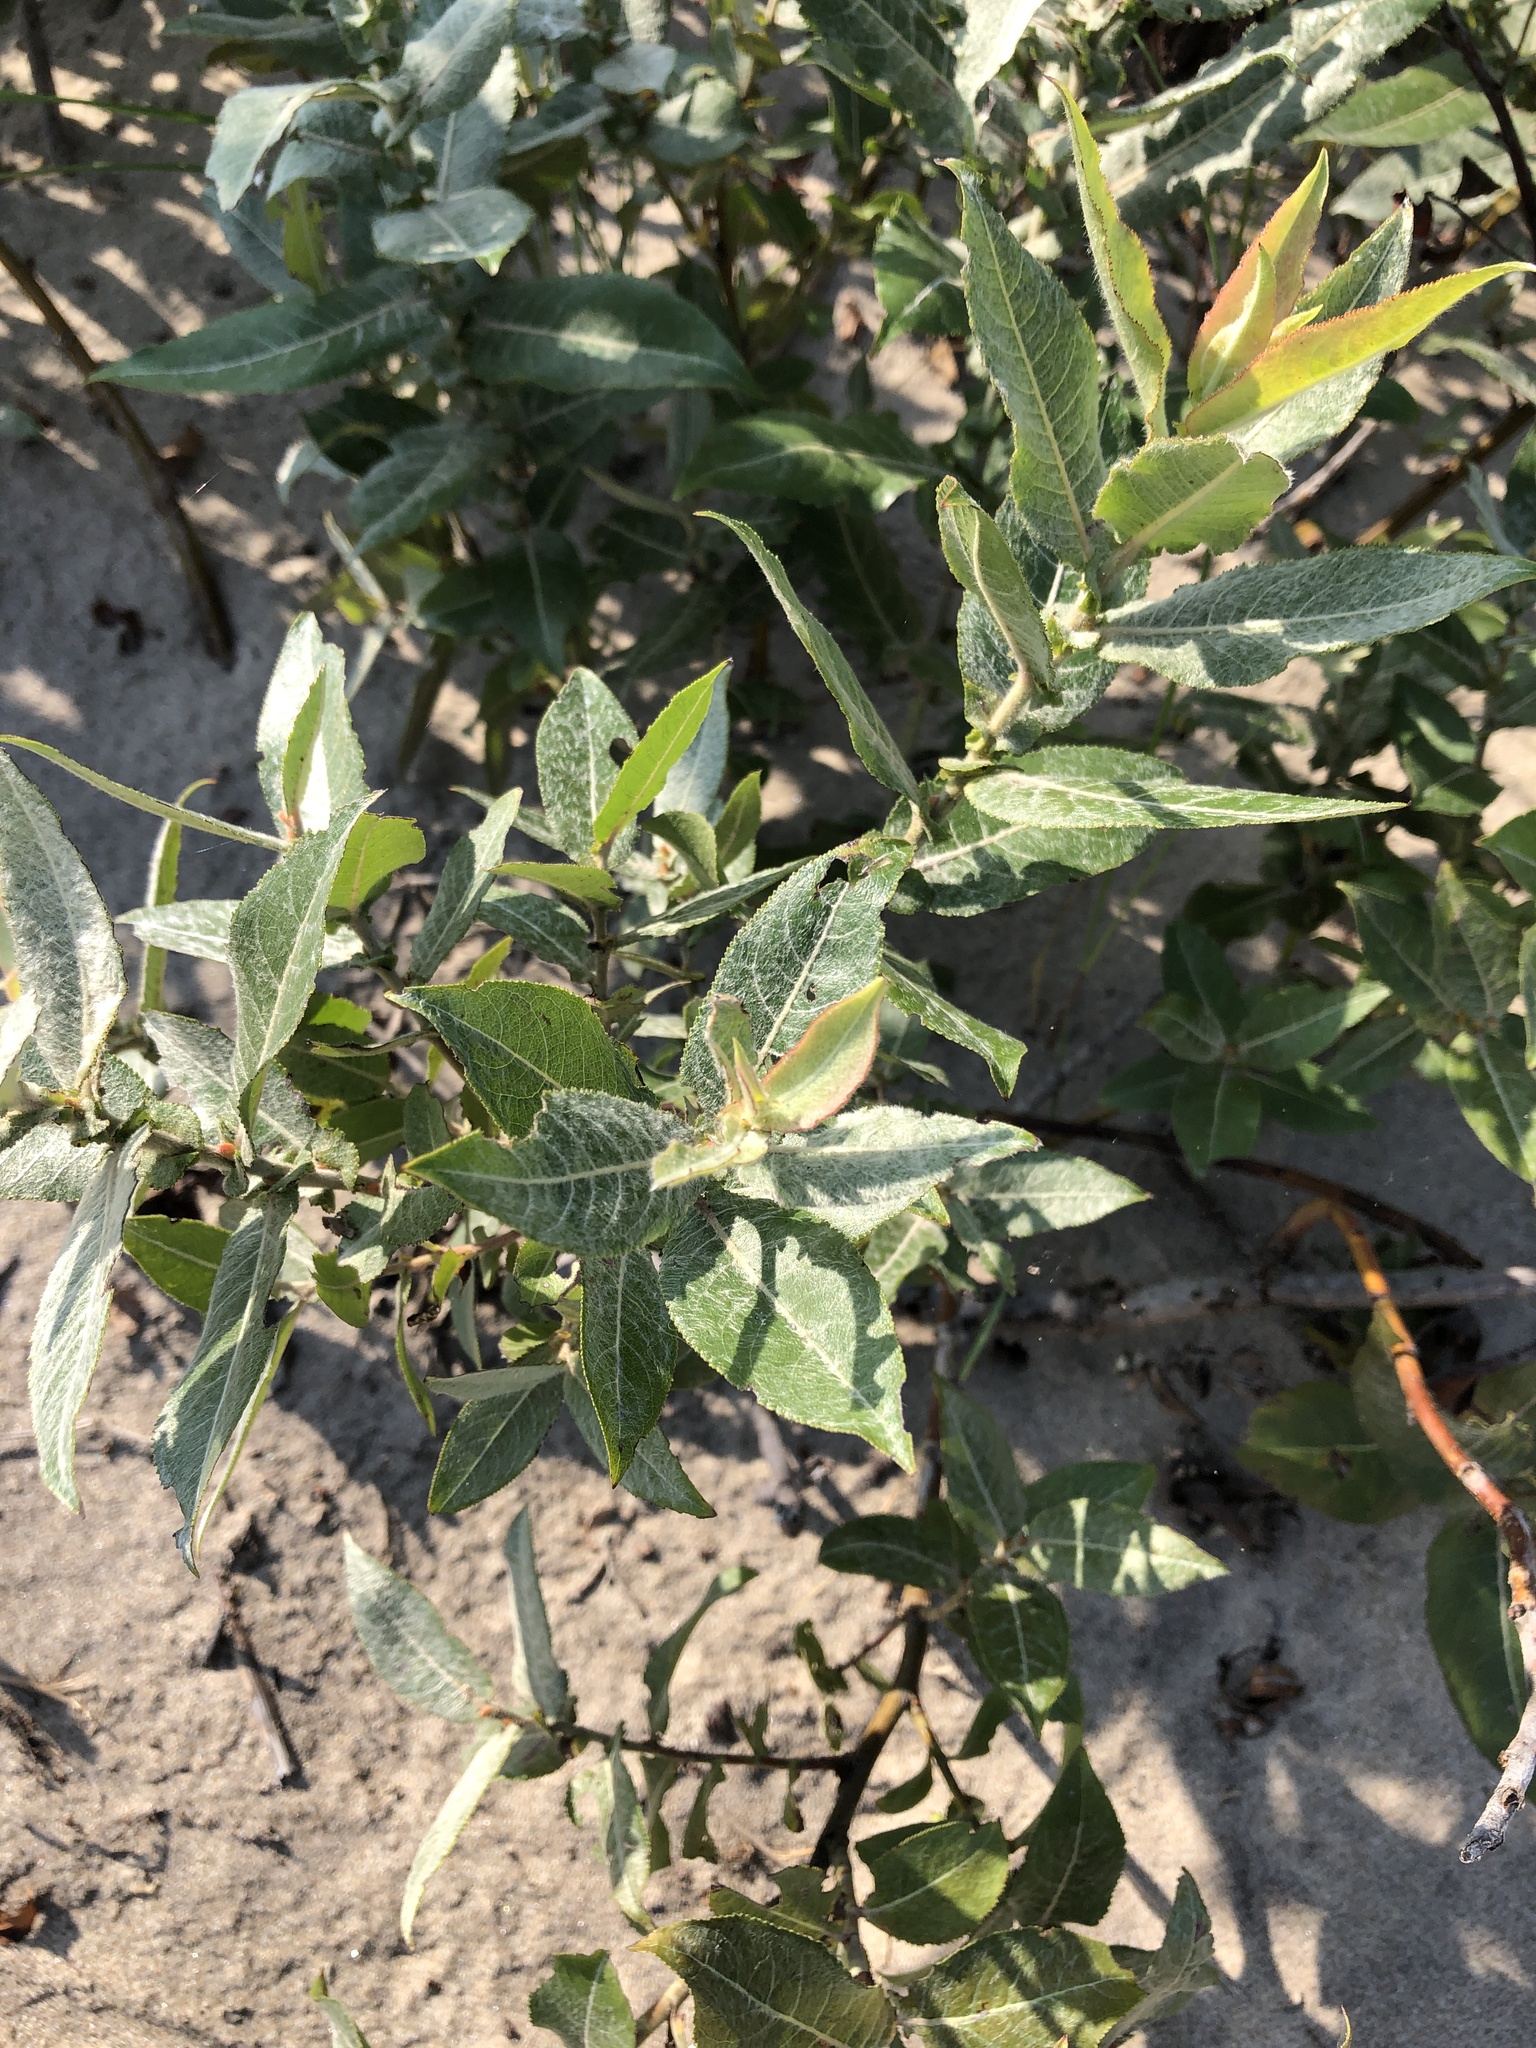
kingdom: Plantae
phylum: Tracheophyta
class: Magnoliopsida
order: Malpighiales
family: Salicaceae
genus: Salix
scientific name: Salix cordata
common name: Heart-leaf willow
